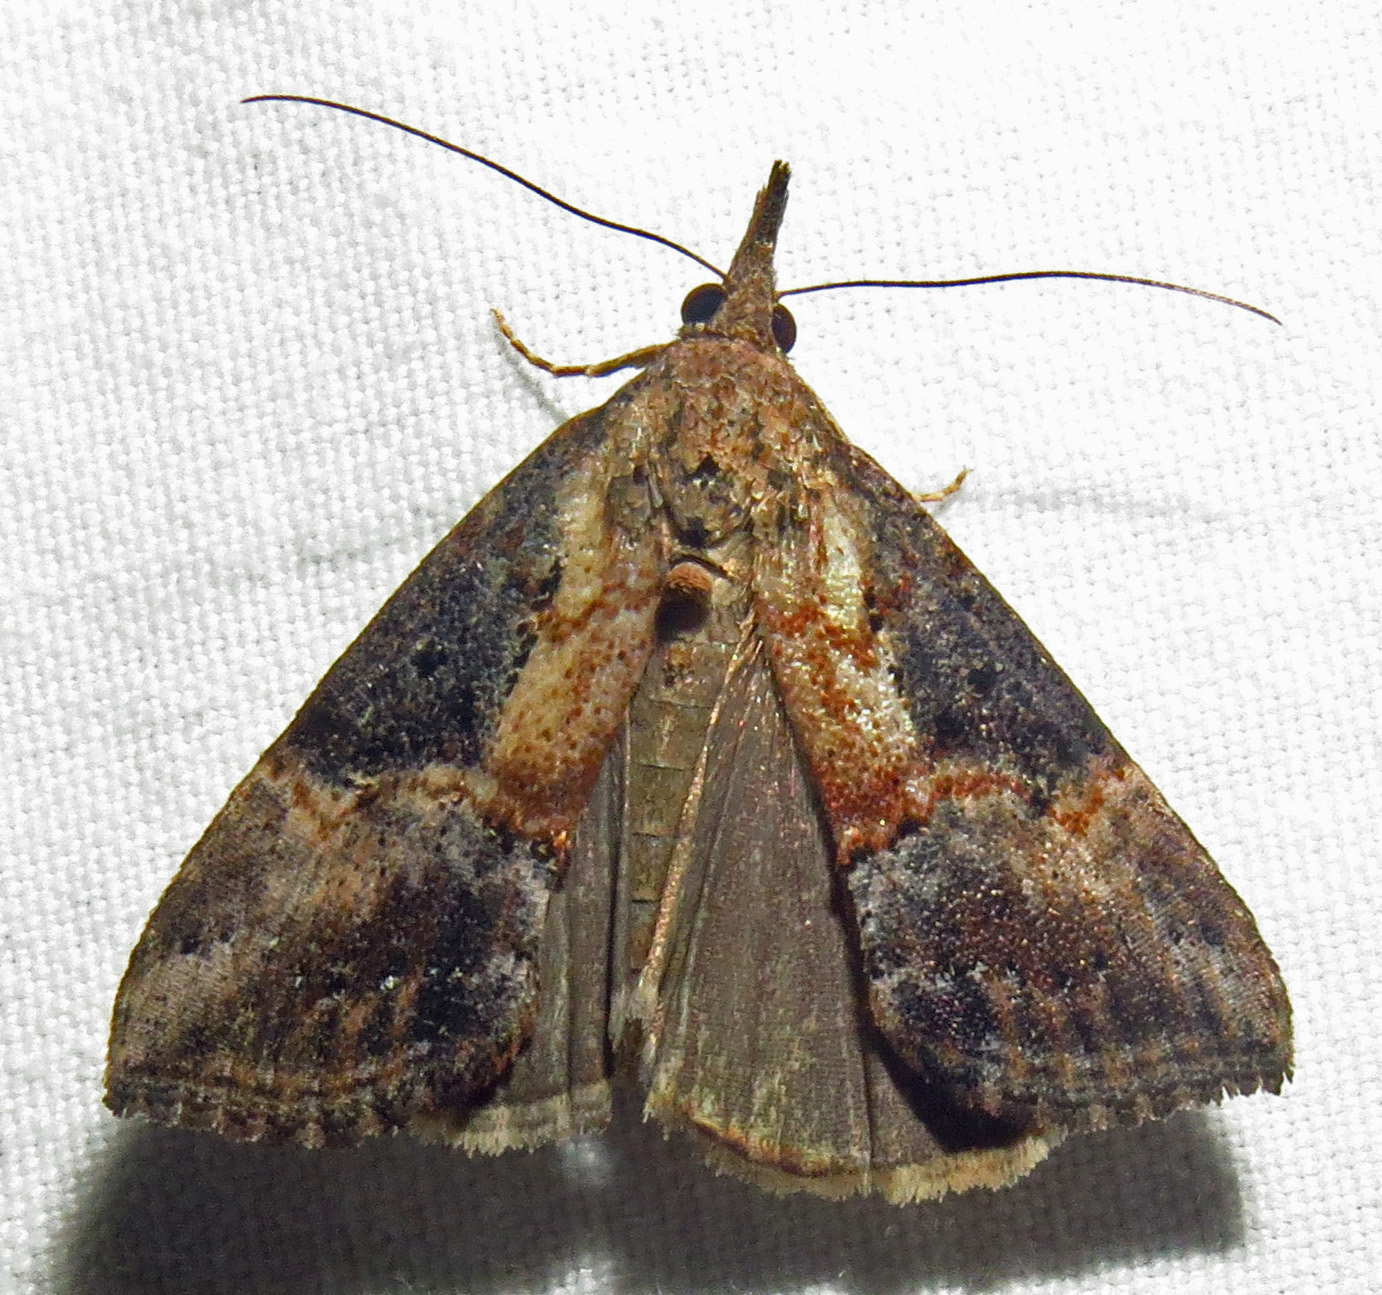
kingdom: Animalia
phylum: Arthropoda
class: Insecta
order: Lepidoptera
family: Erebidae
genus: Hypena
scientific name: Hypena scabra
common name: Green cloverworm
